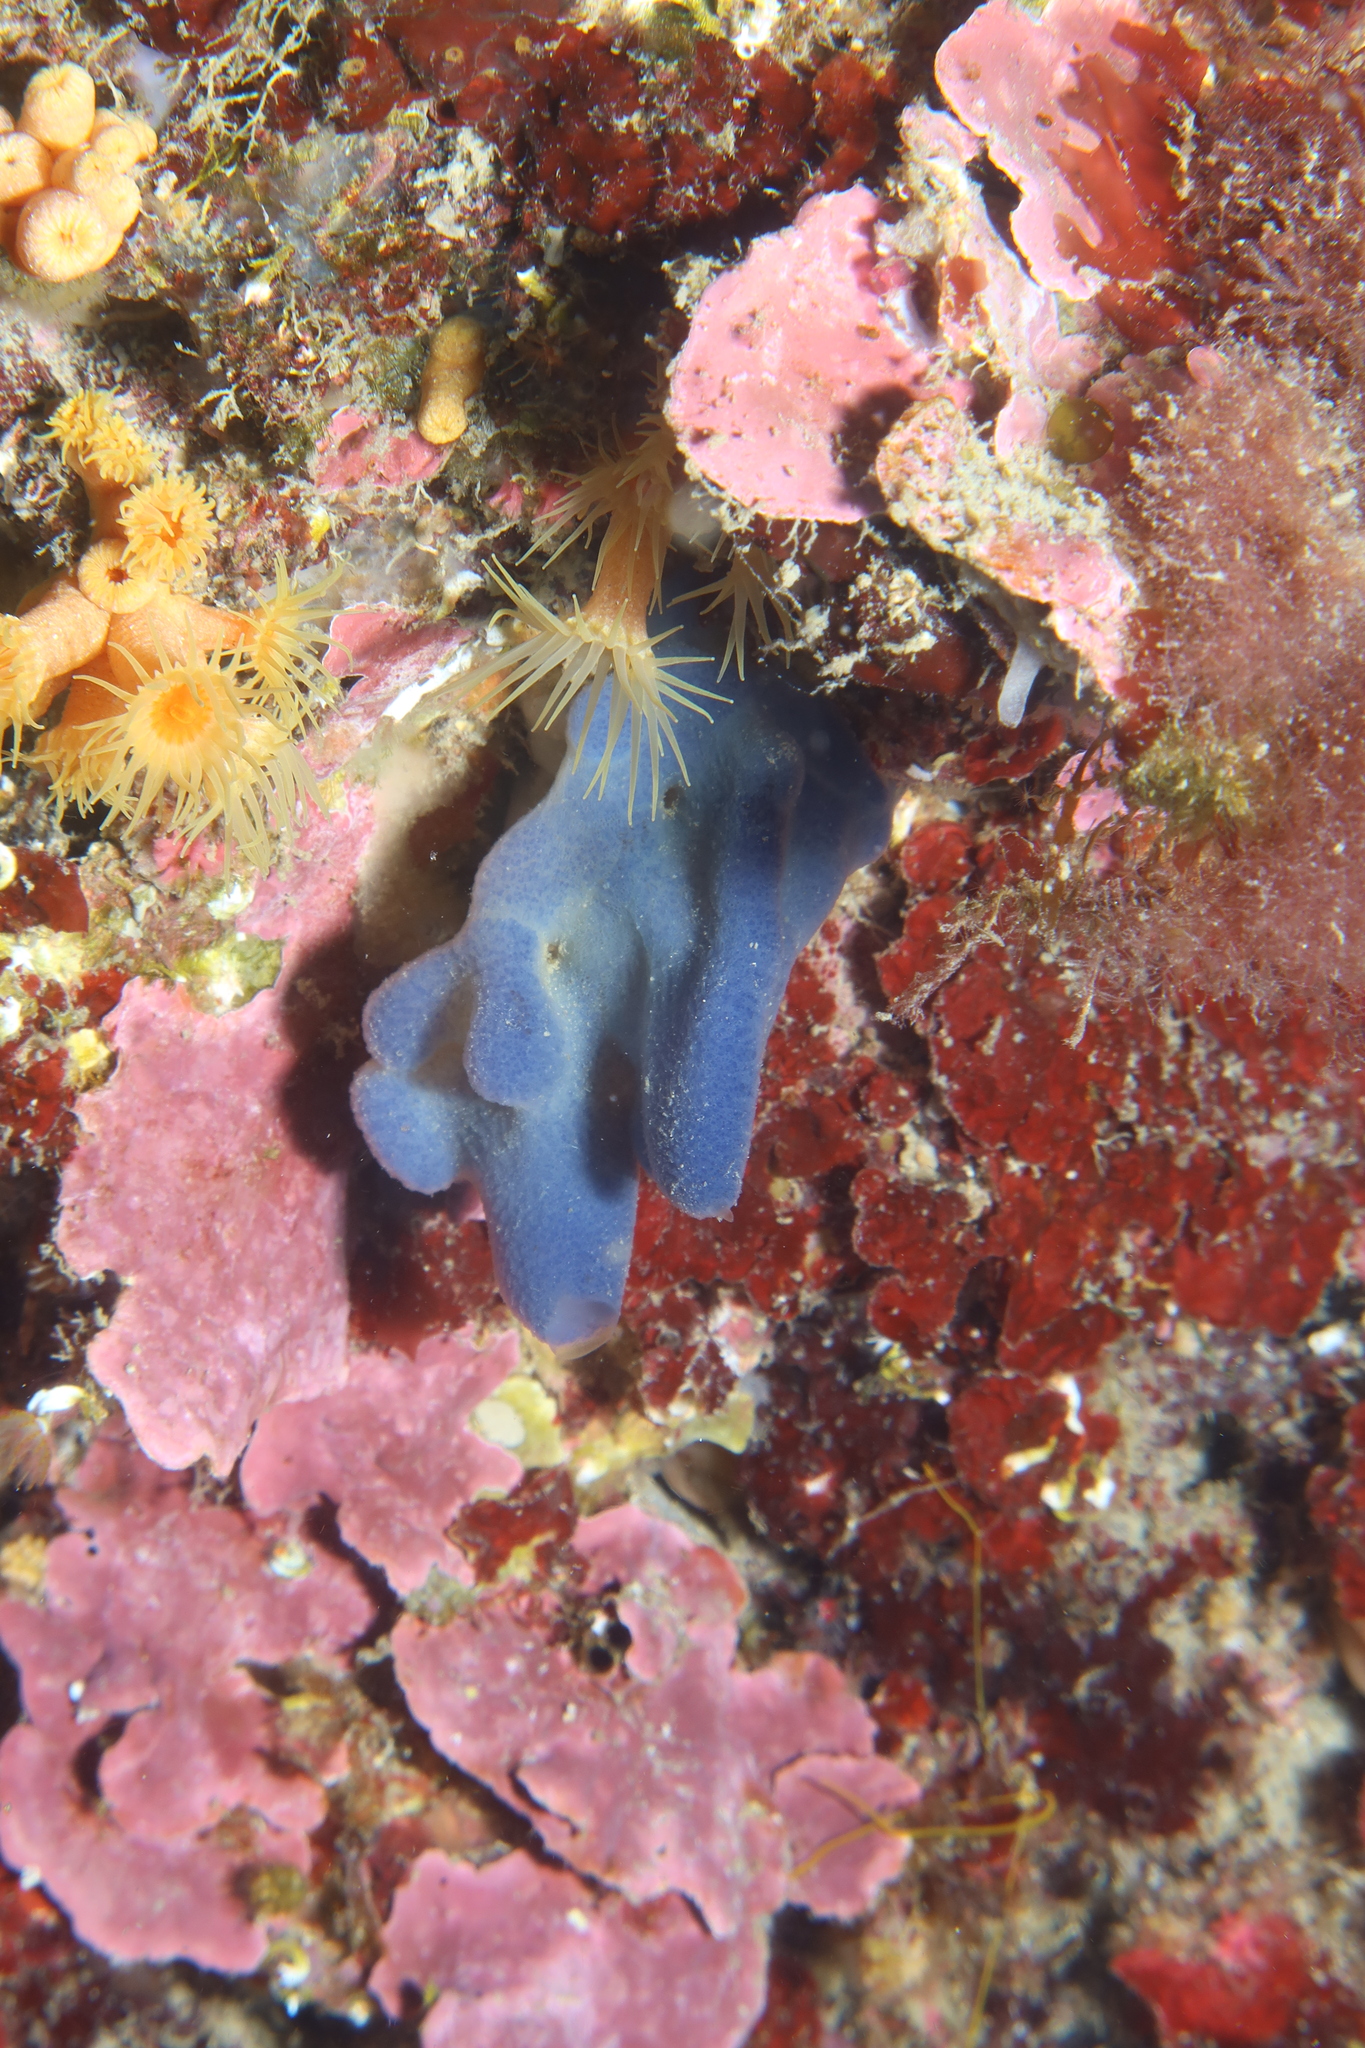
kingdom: Animalia
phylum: Porifera
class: Homoscleromorpha
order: Homosclerophorida
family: Oscarellidae
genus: Oscarella
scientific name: Oscarella lobularis
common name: Flesh sponge
